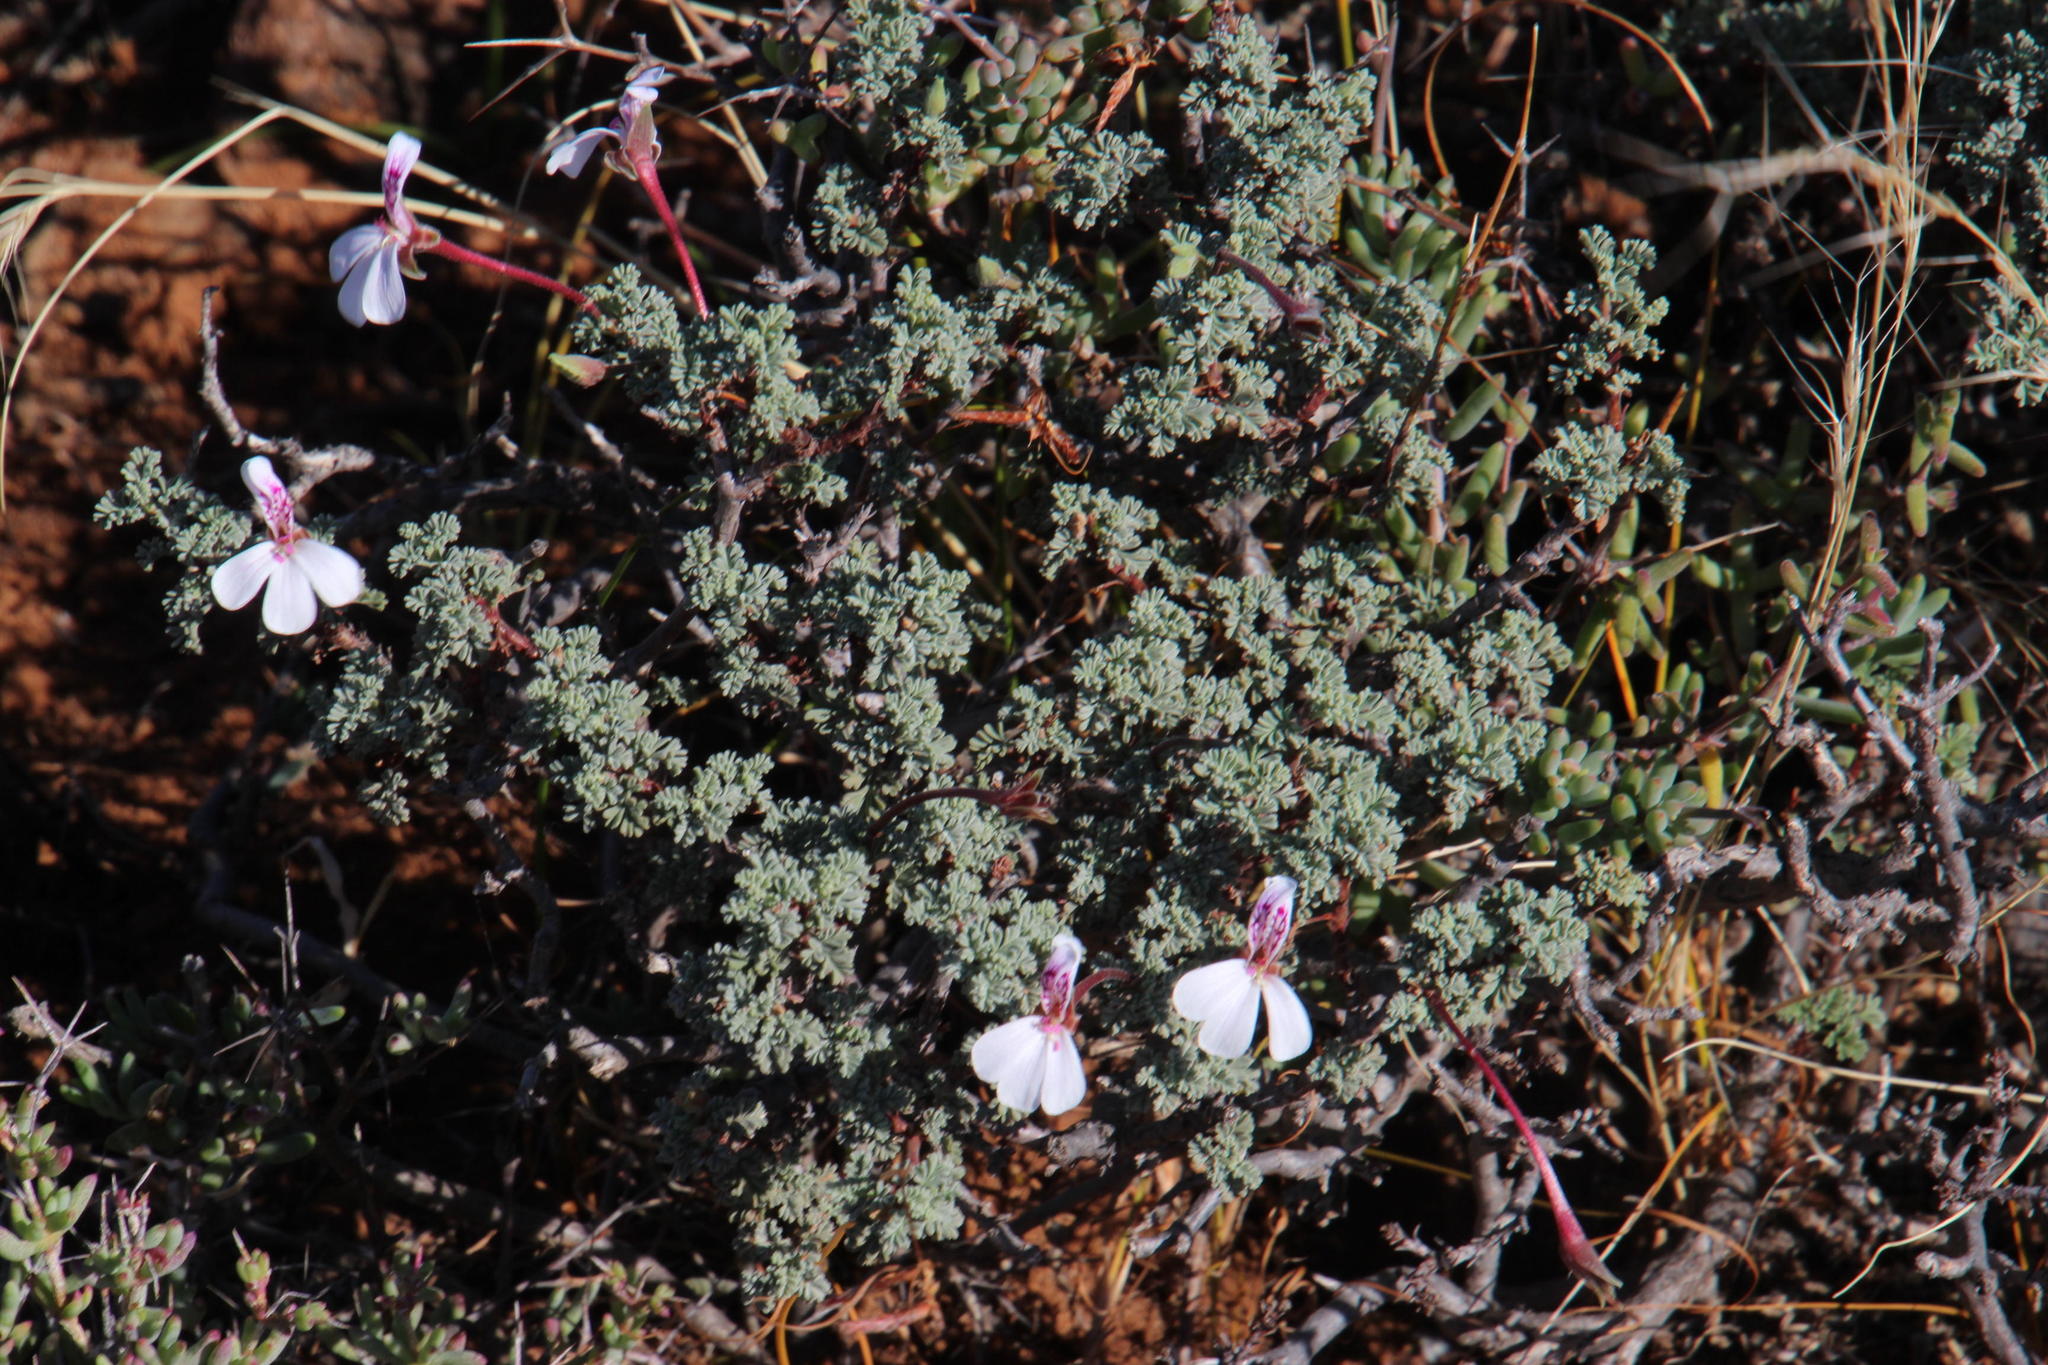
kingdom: Plantae
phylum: Tracheophyta
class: Magnoliopsida
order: Geraniales
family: Geraniaceae
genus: Pelargonium
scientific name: Pelargonium abrotanifolium
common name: Southernwood geranium
